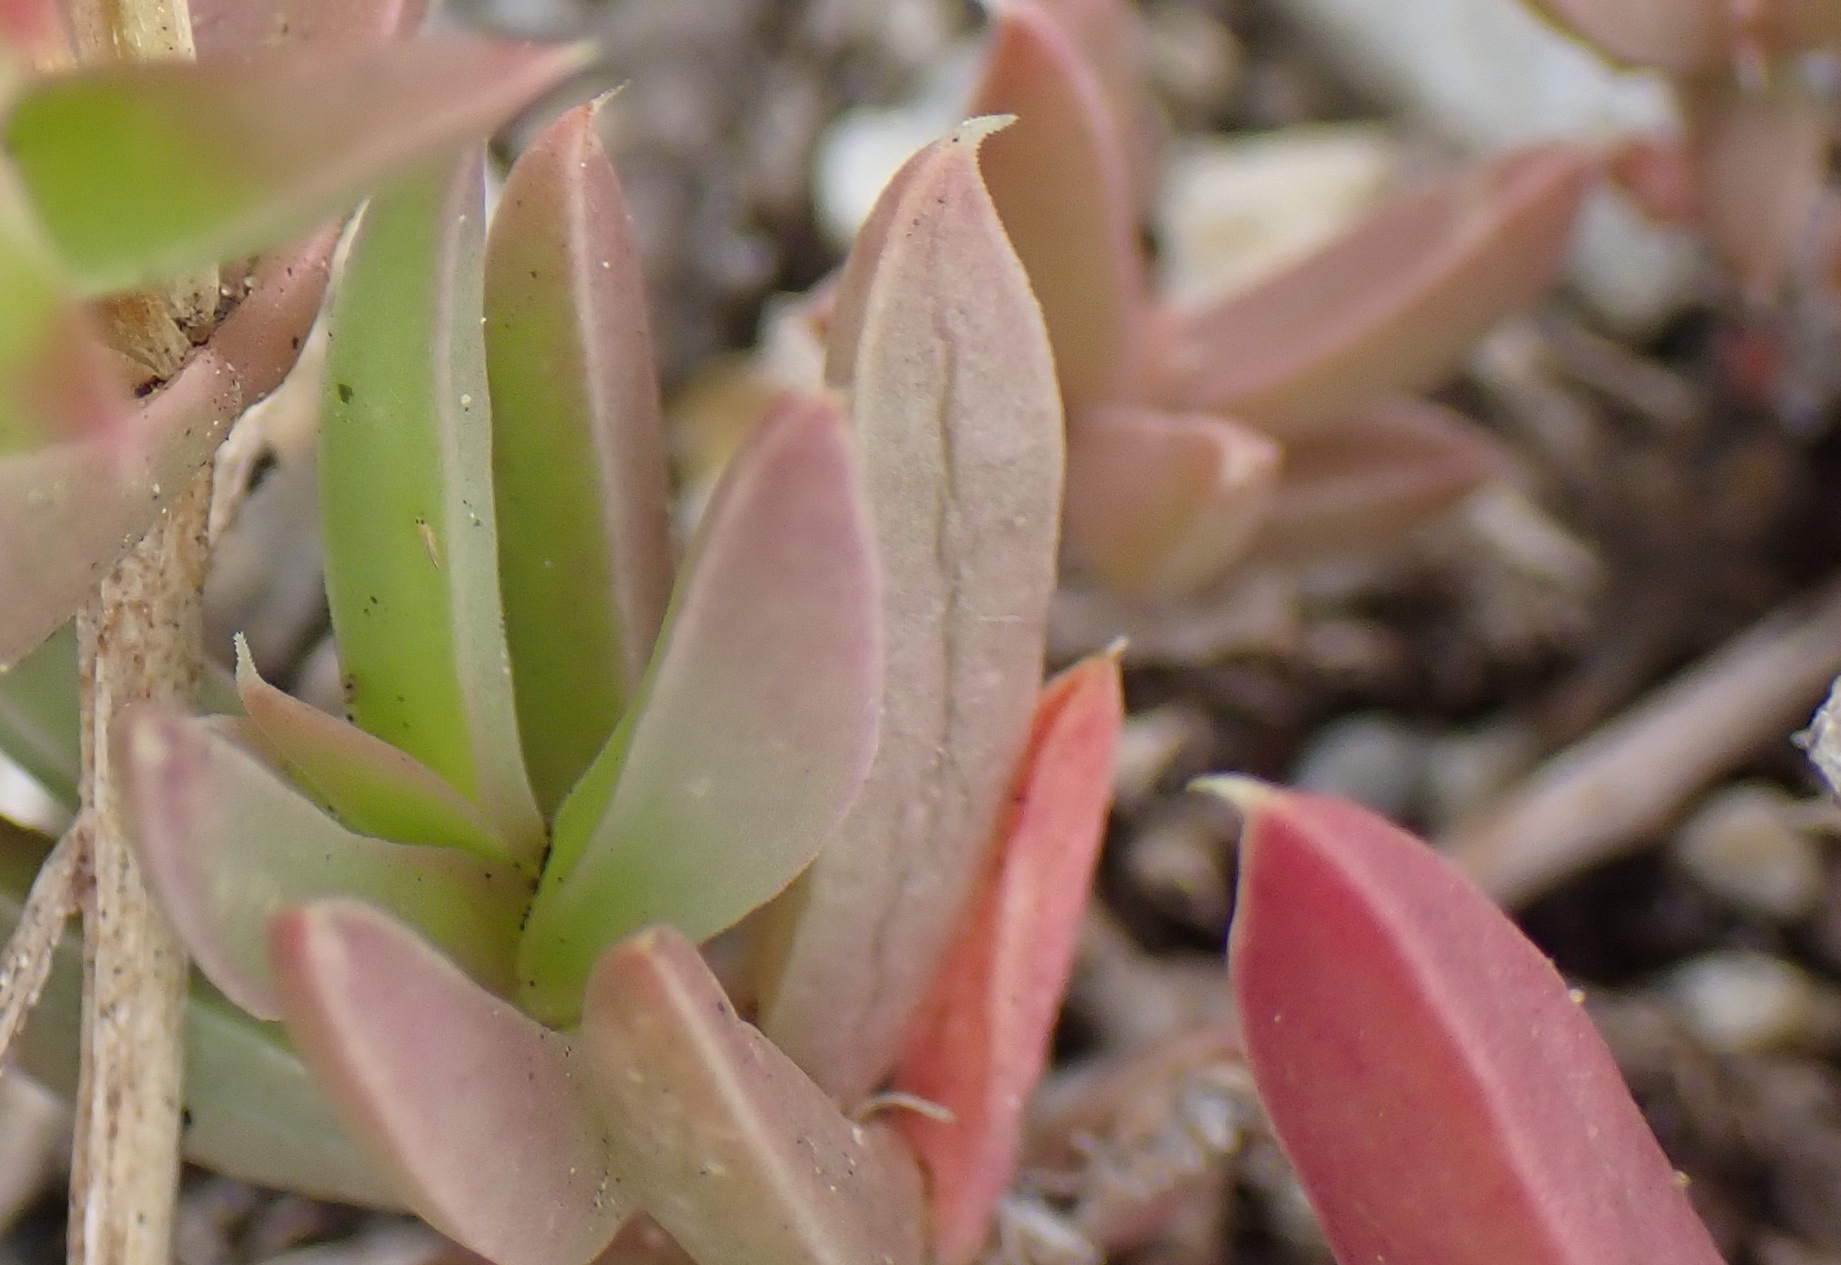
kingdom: Plantae
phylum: Tracheophyta
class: Magnoliopsida
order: Caryophyllales
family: Aizoaceae
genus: Delosperma
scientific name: Delosperma inconspicuum
